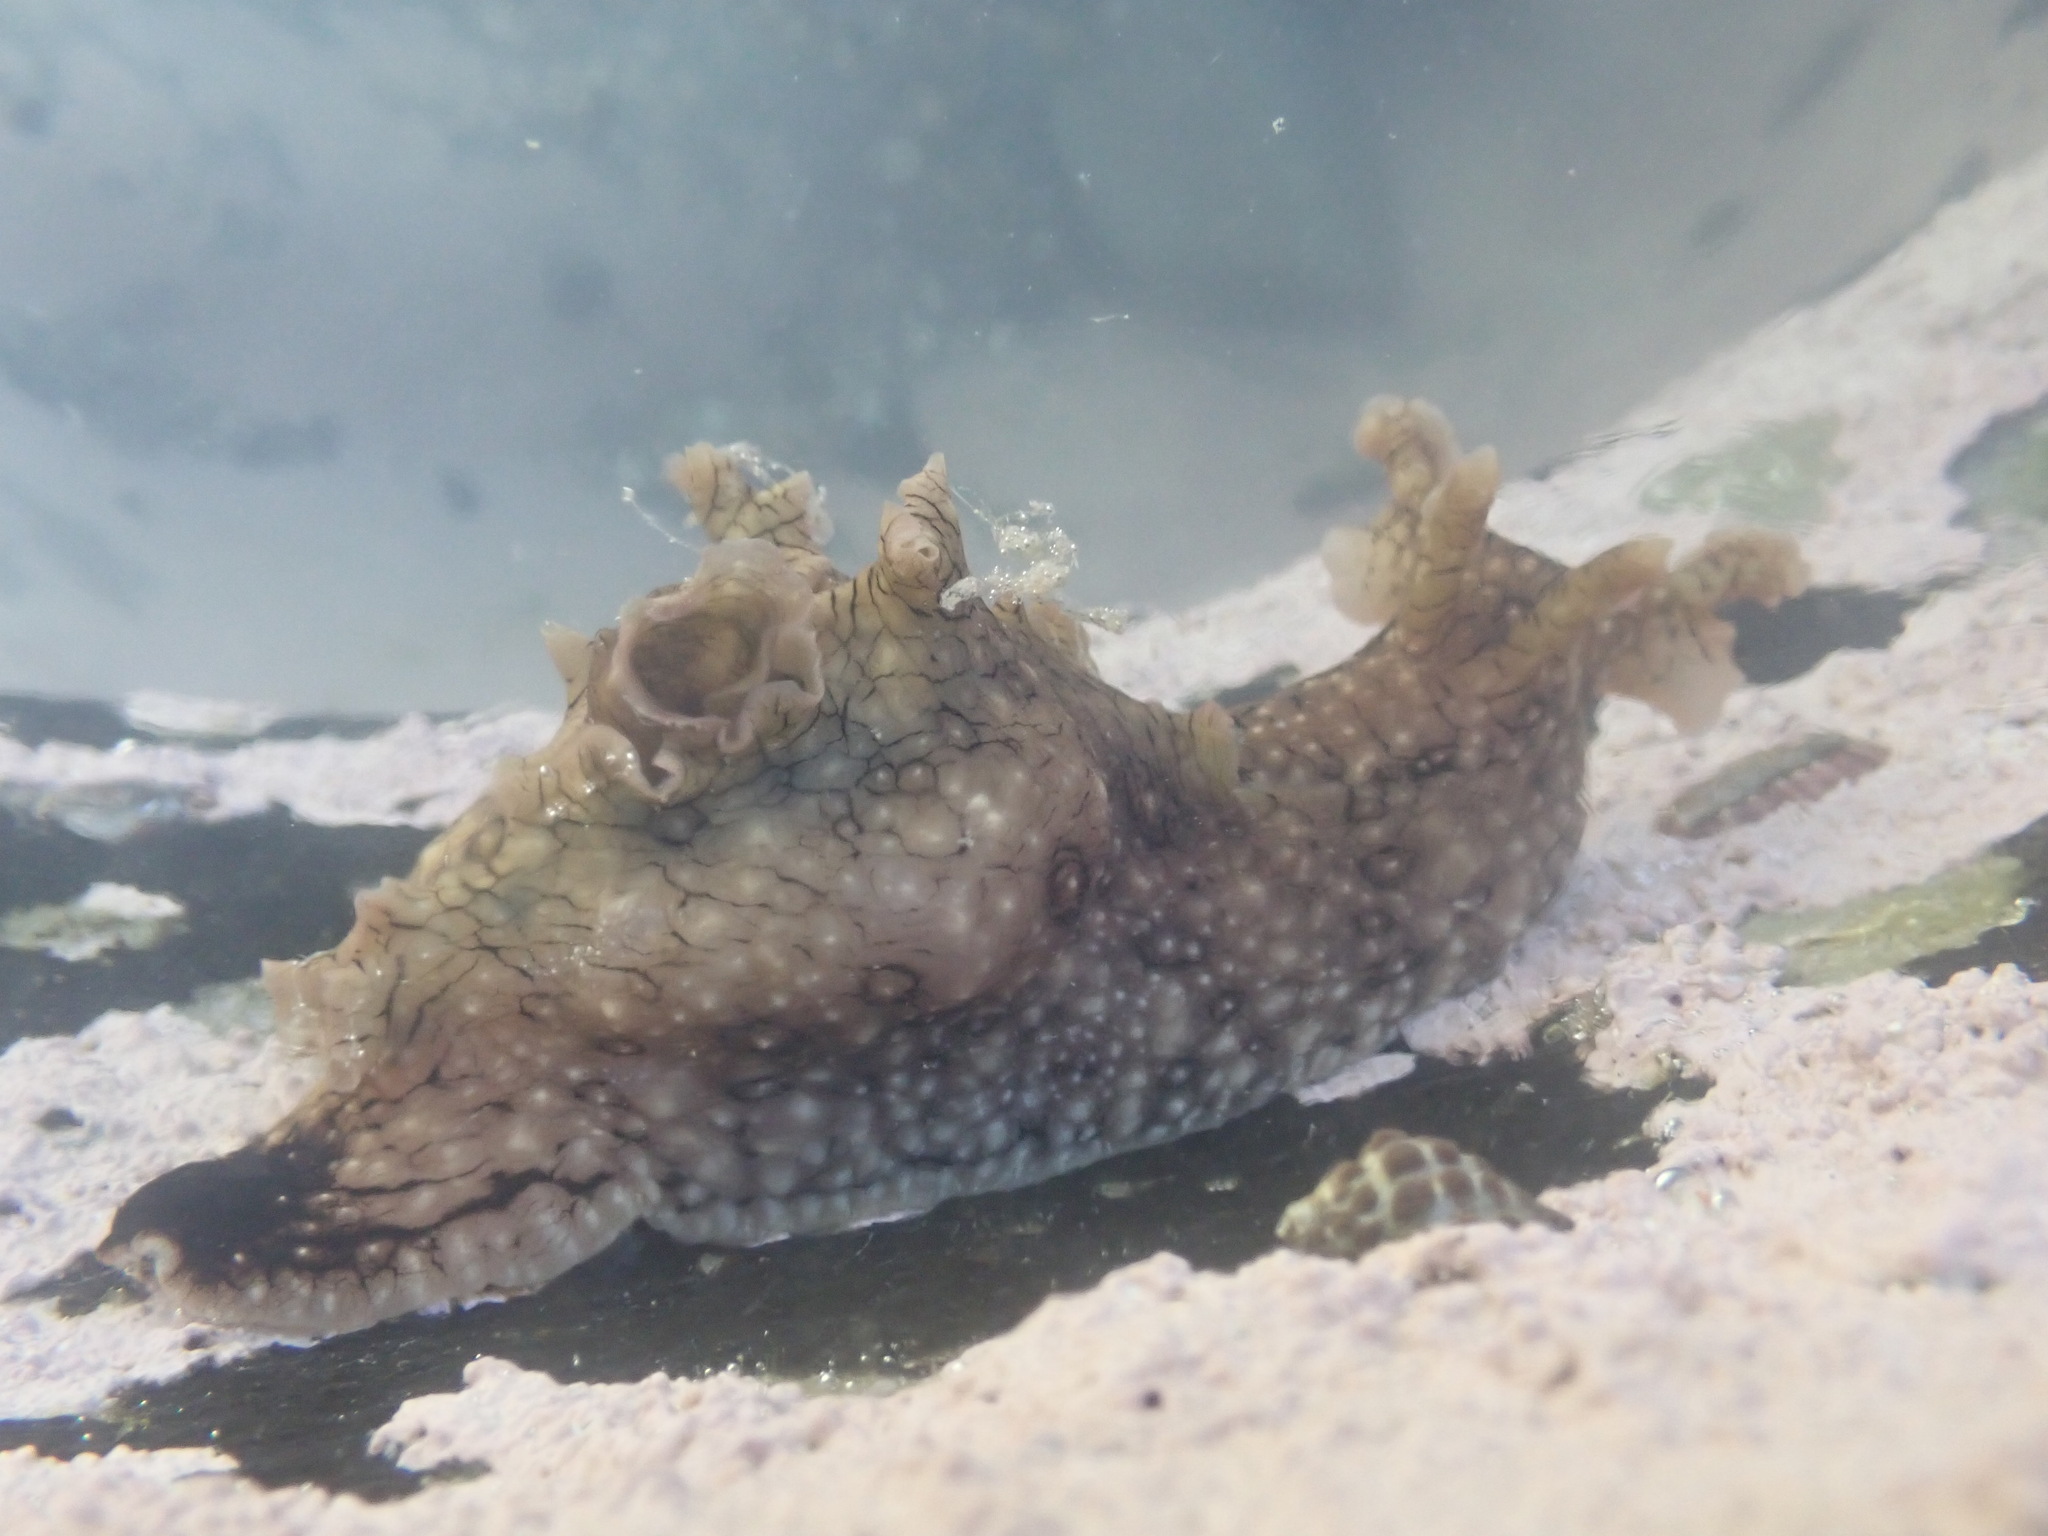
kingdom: Animalia
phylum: Mollusca
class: Gastropoda
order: Aplysiida
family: Aplysiidae
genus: Aplysia
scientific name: Aplysia argus
